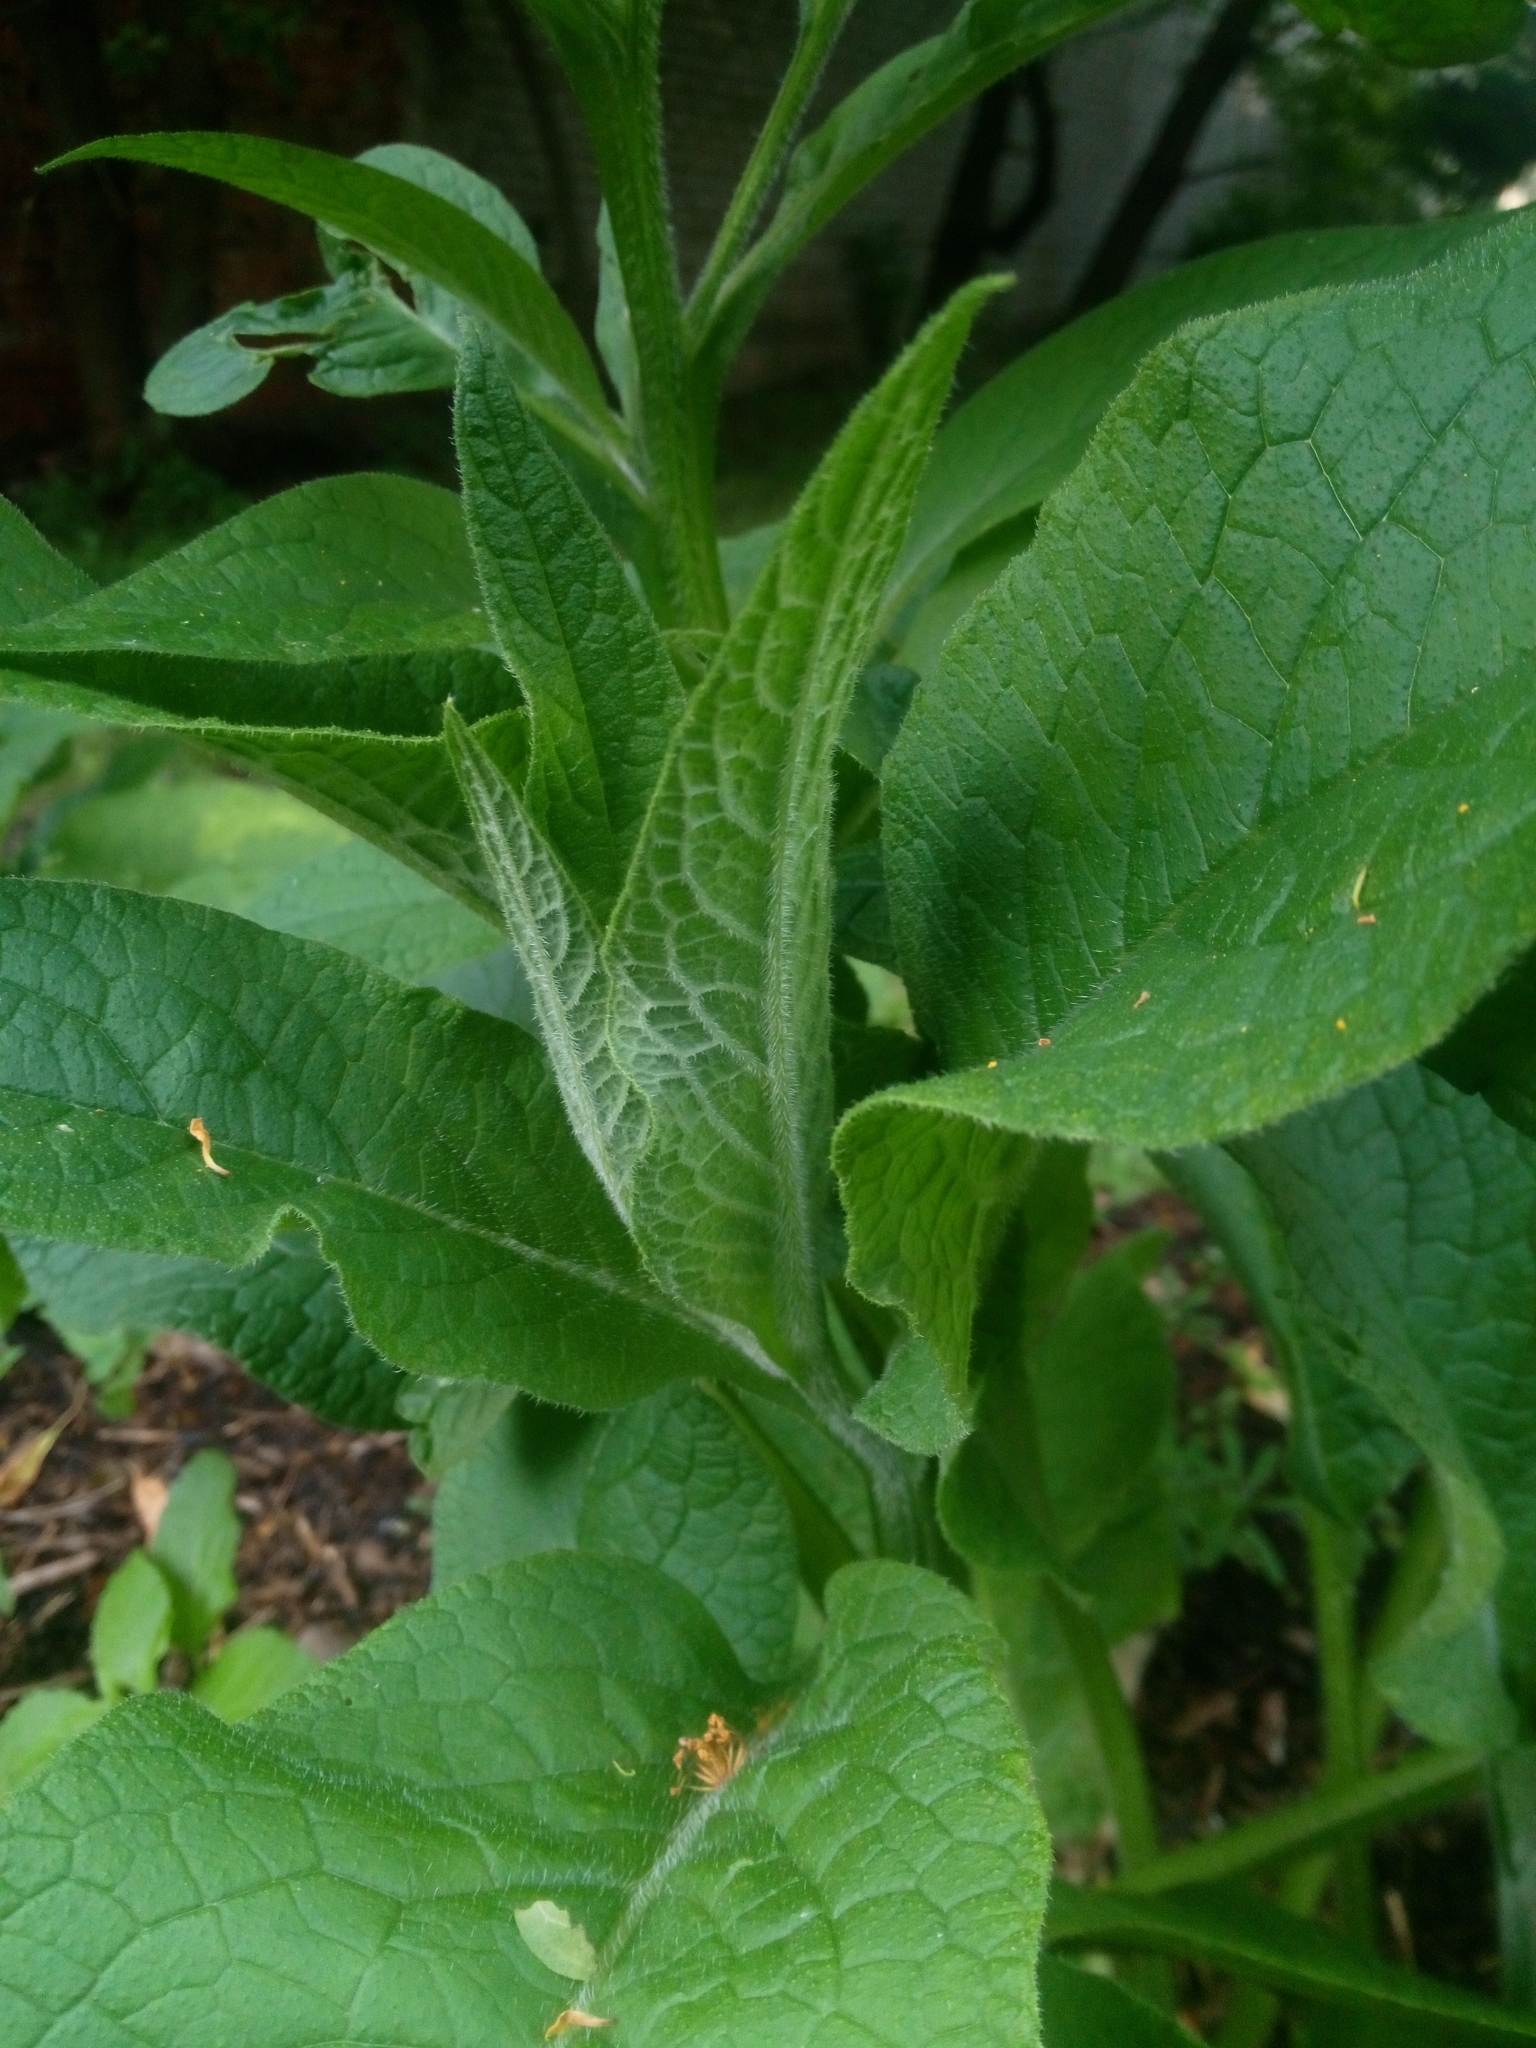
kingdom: Plantae
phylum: Tracheophyta
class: Magnoliopsida
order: Boraginales
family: Boraginaceae
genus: Symphytum
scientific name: Symphytum officinale
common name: Common comfrey
